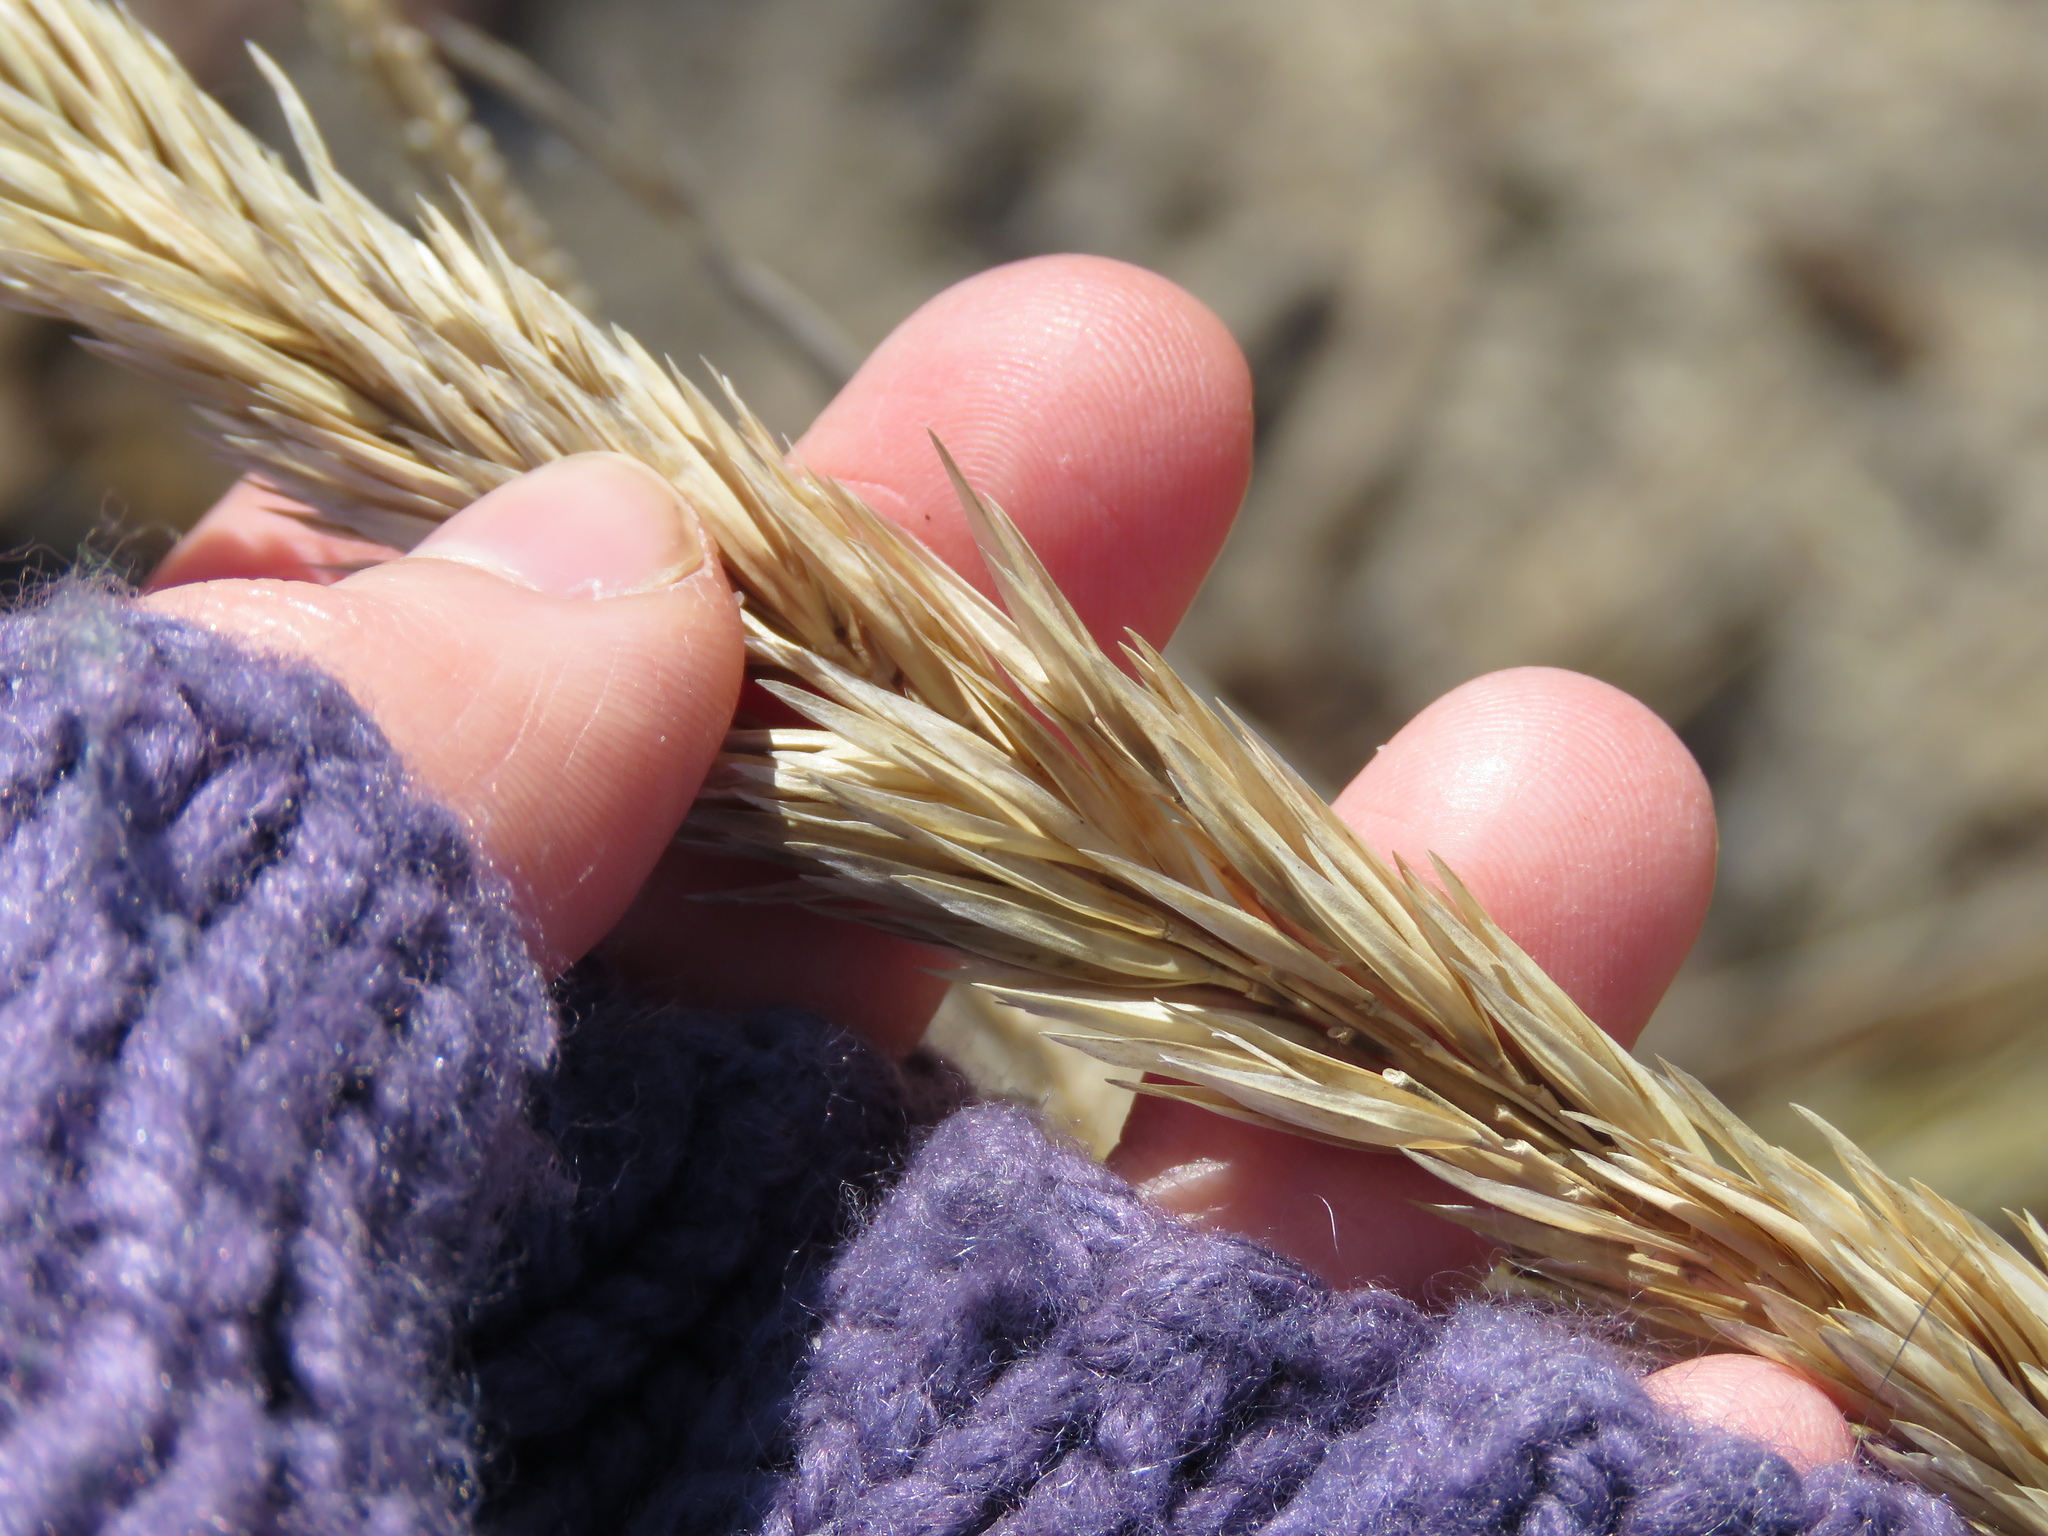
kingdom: Plantae
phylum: Tracheophyta
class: Liliopsida
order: Poales
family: Poaceae
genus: Calamagrostis
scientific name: Calamagrostis breviligulata
